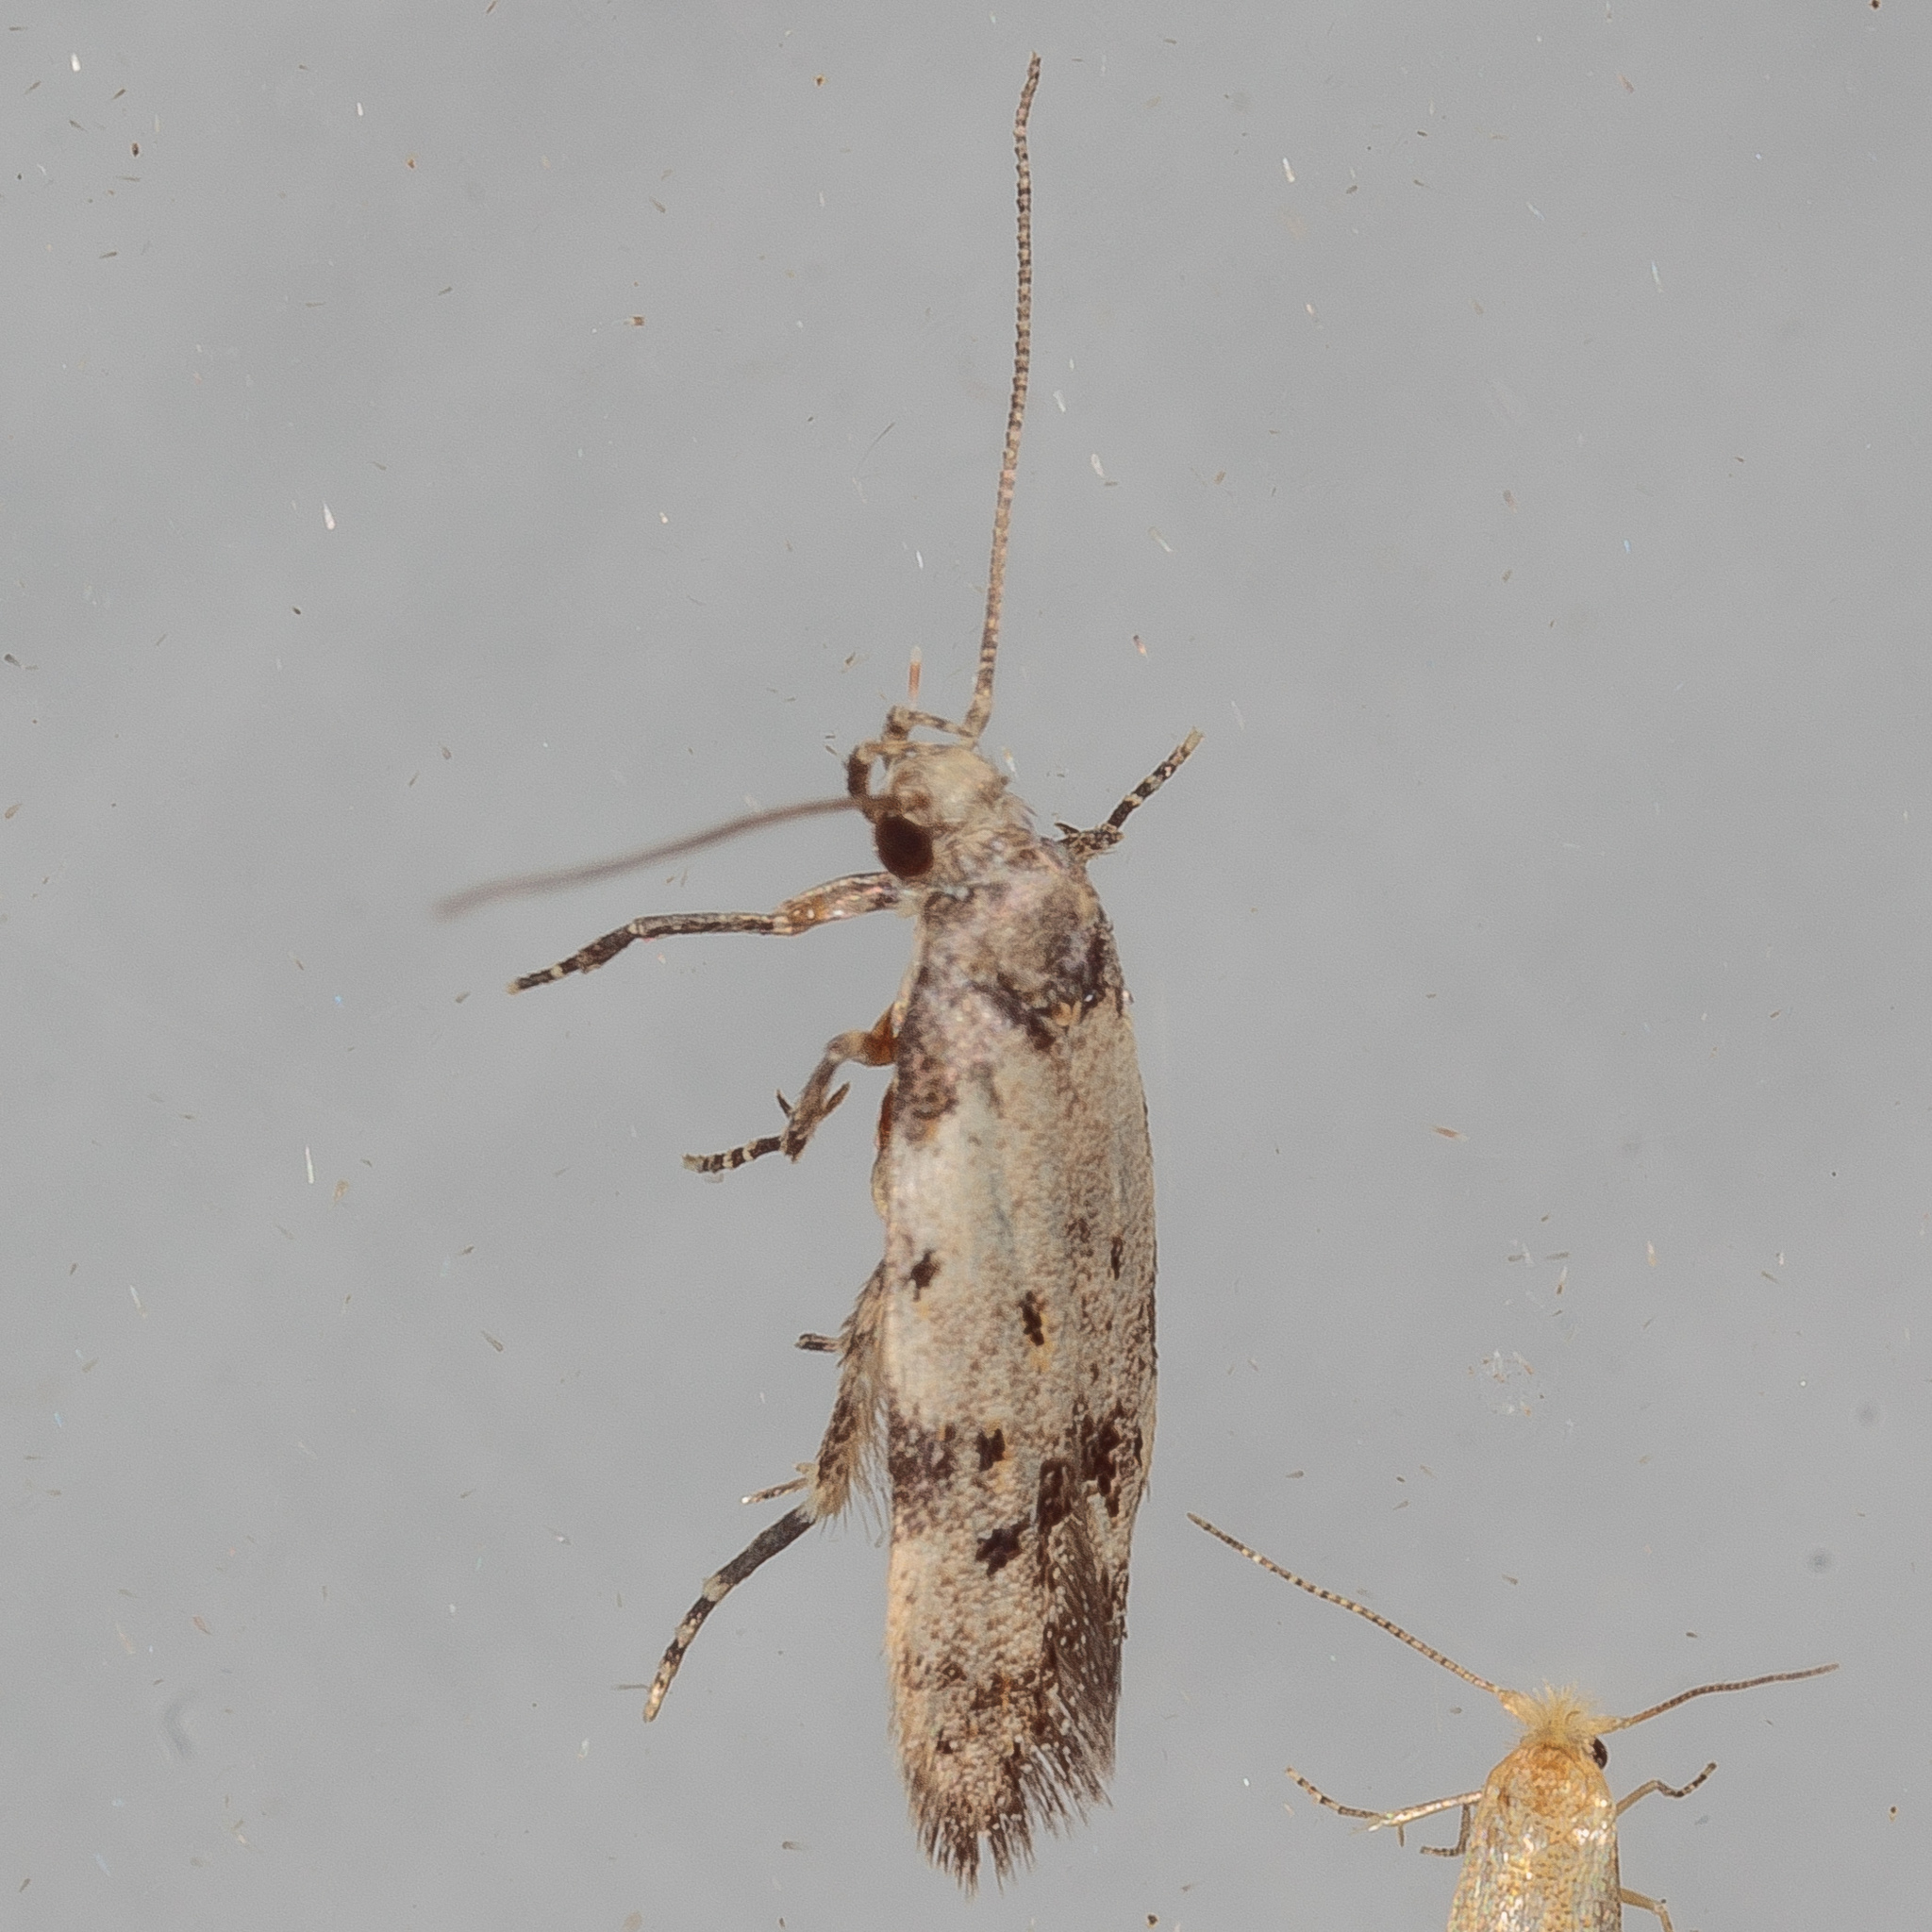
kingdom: Animalia
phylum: Arthropoda
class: Insecta
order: Lepidoptera
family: Autostichidae
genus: Taygete
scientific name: Taygete attributella
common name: Triangle-marked twirler moth
